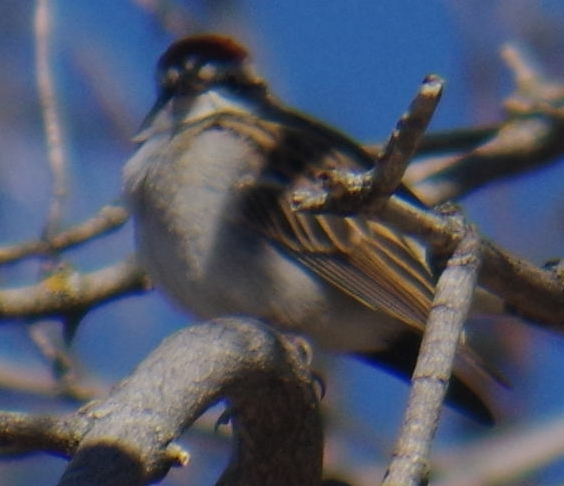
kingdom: Animalia
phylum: Chordata
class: Aves
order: Passeriformes
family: Passerellidae
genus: Spizella
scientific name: Spizella passerina
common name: Chipping sparrow
